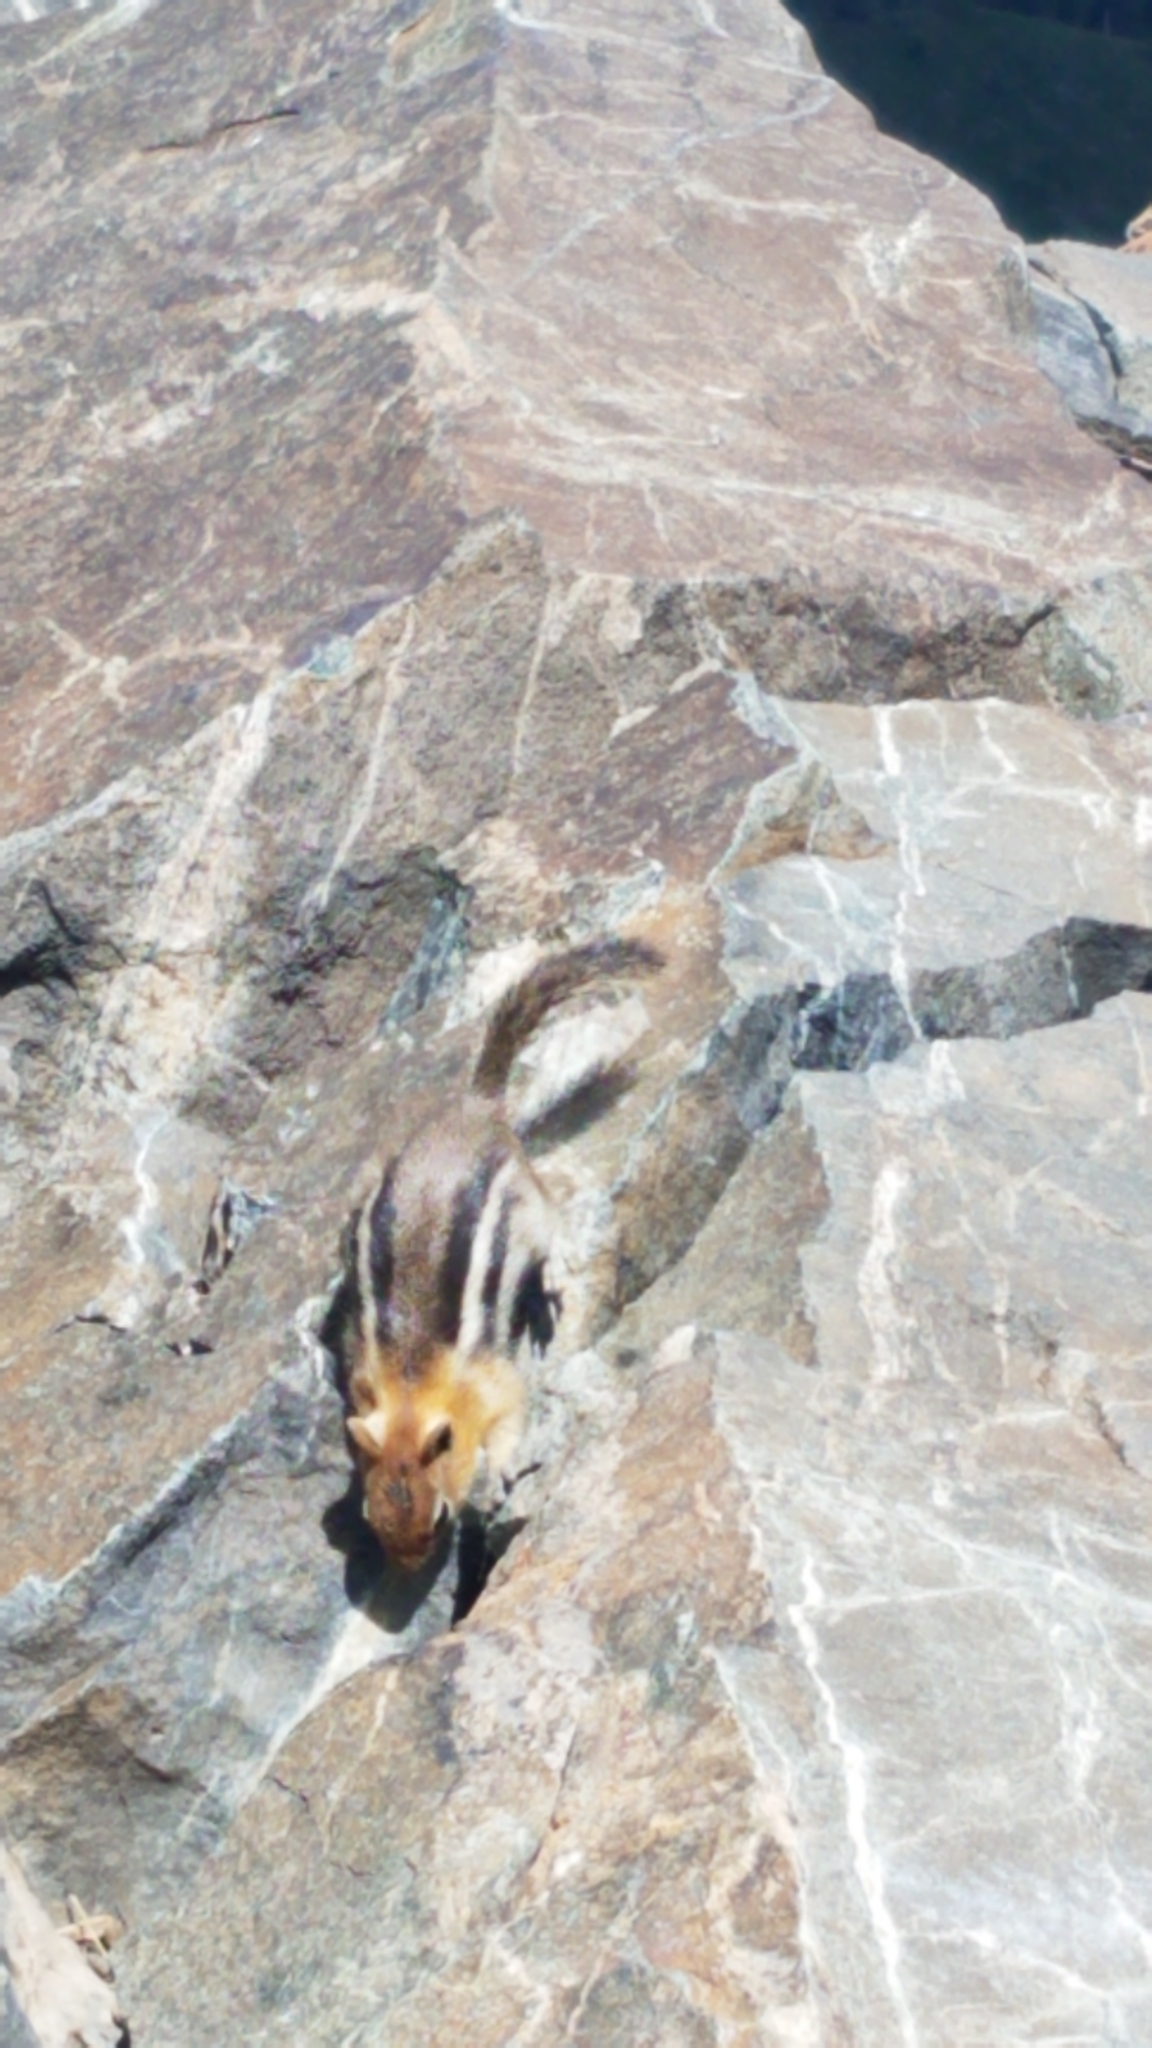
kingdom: Animalia
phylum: Chordata
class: Mammalia
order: Rodentia
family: Sciuridae
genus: Callospermophilus
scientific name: Callospermophilus lateralis
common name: Golden-mantled ground squirrel
